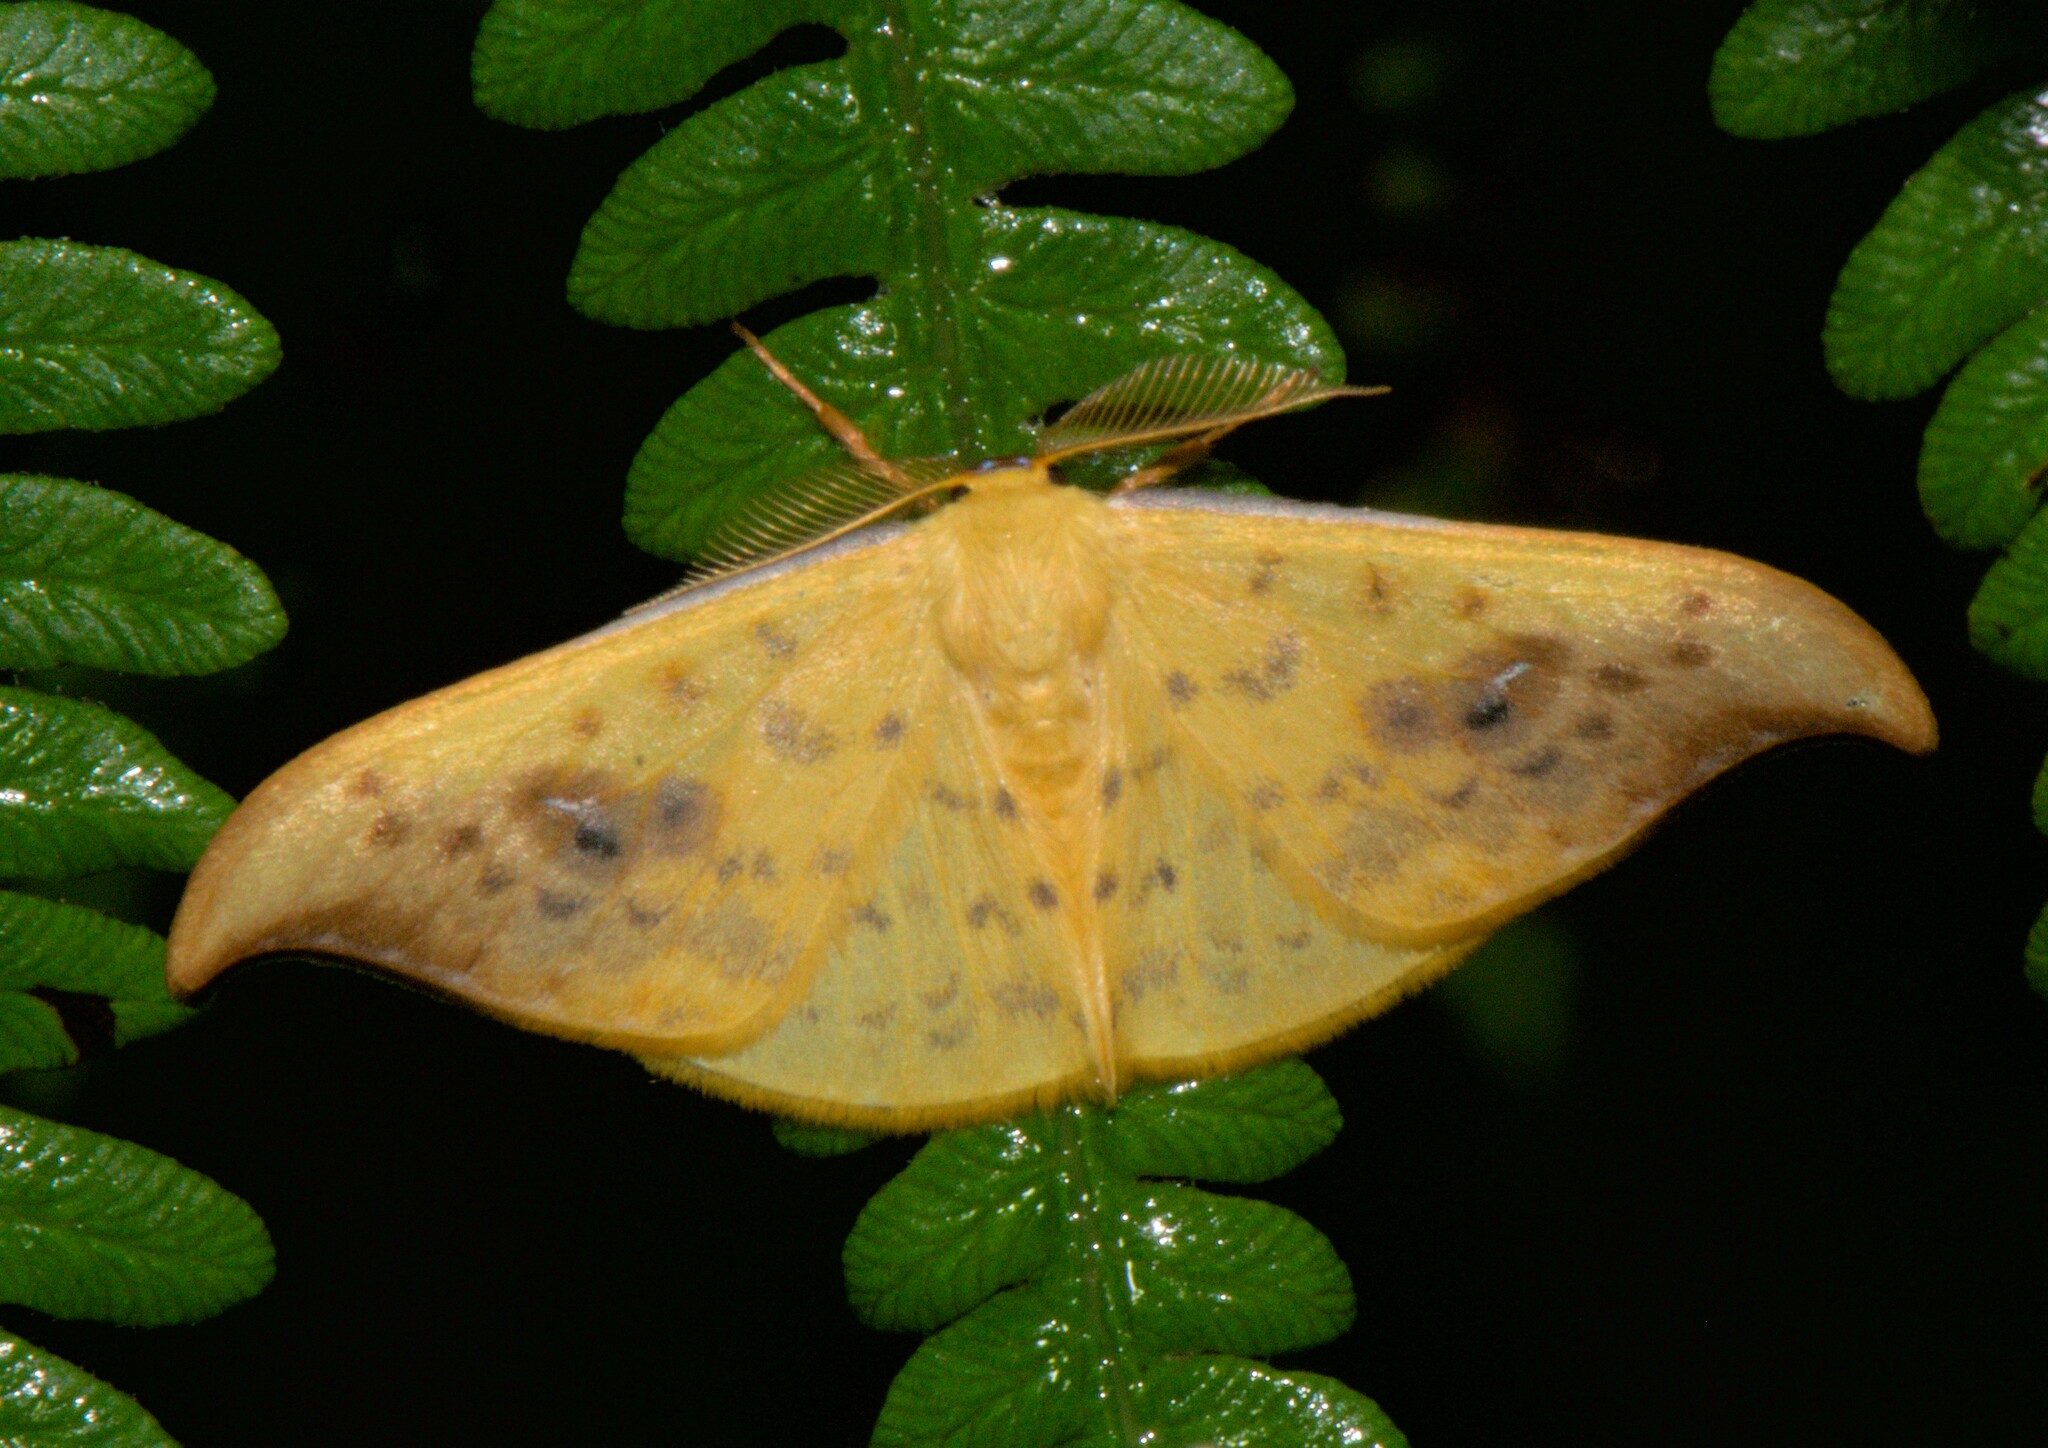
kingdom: Animalia
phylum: Arthropoda
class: Insecta
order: Lepidoptera
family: Drepanidae
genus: Tridrepana
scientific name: Tridrepana sadana
